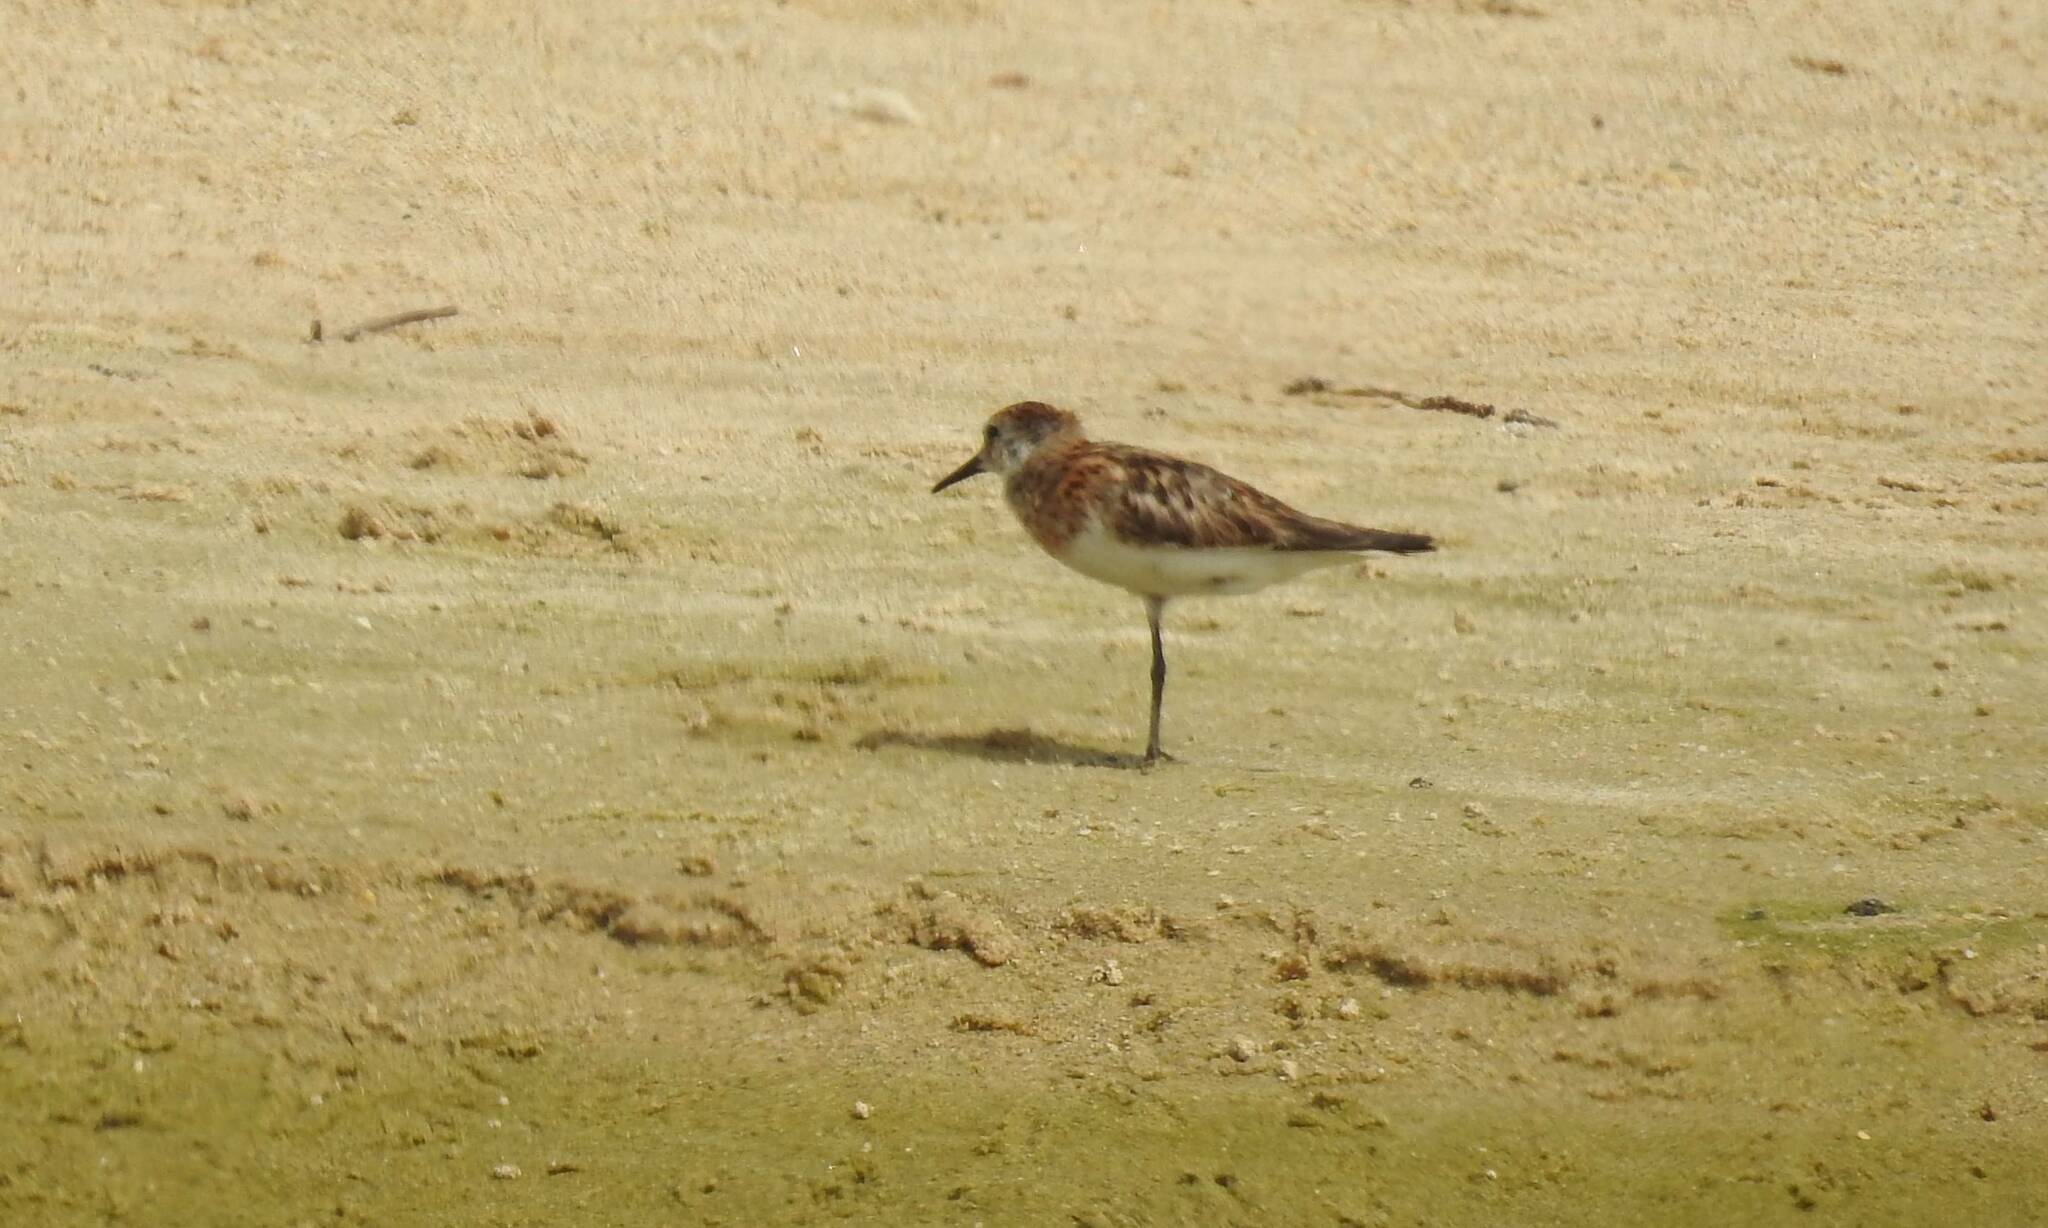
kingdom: Animalia
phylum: Chordata
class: Aves
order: Charadriiformes
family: Scolopacidae
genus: Calidris
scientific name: Calidris minuta
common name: Little stint
